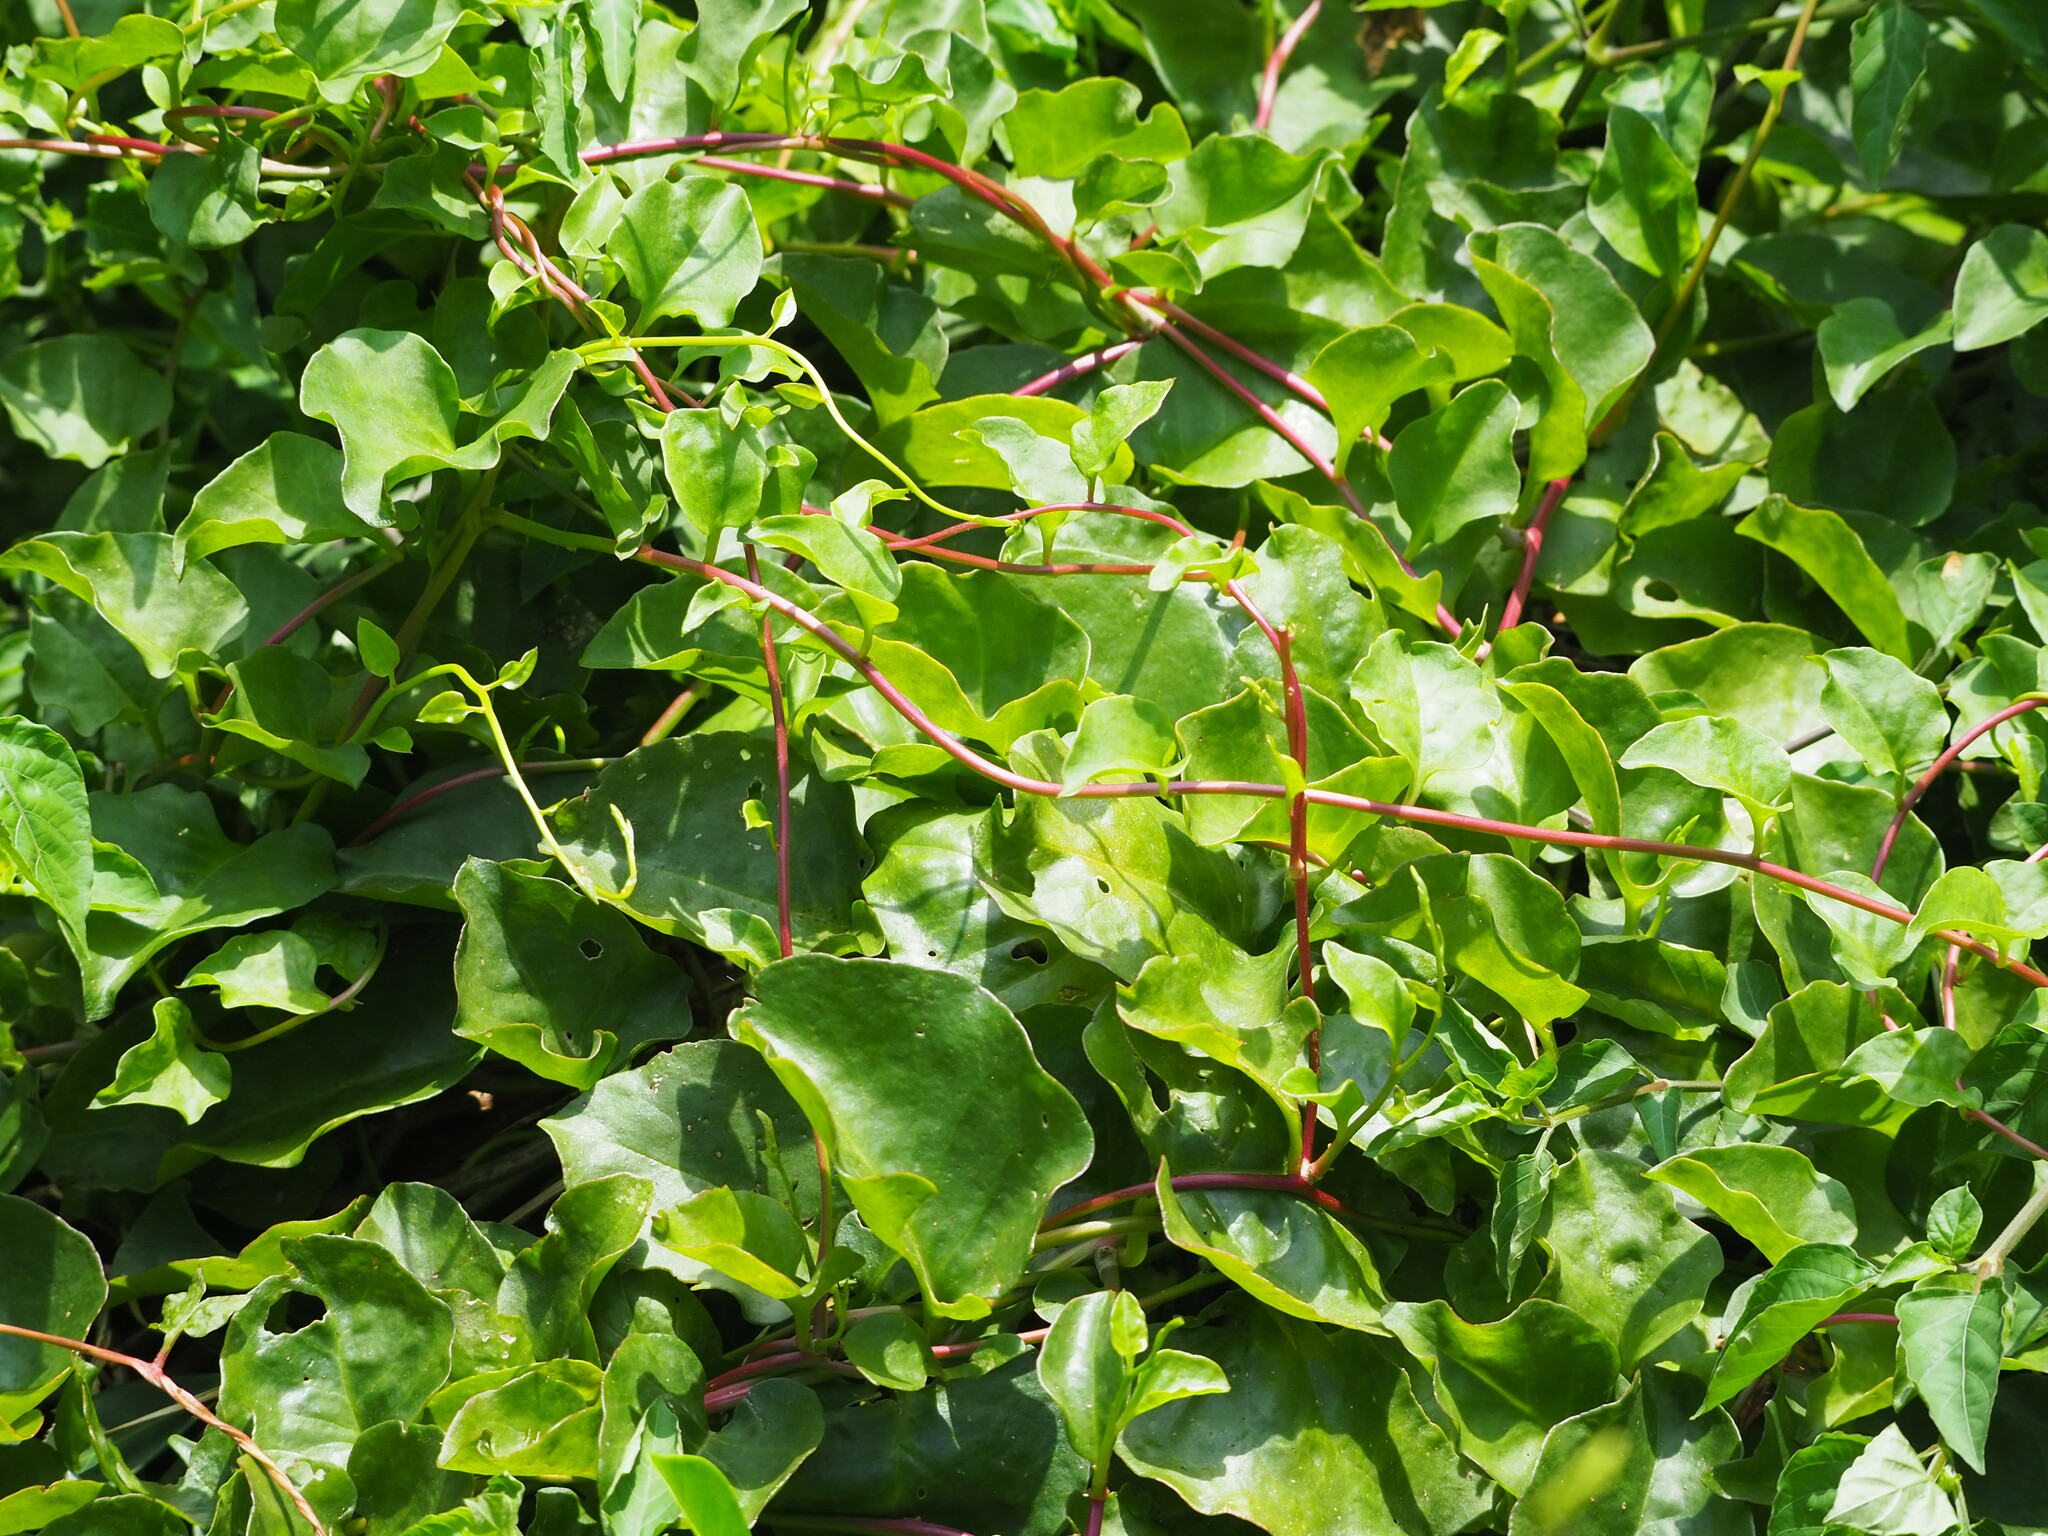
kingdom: Plantae
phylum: Tracheophyta
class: Magnoliopsida
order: Caryophyllales
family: Basellaceae
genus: Anredera
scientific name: Anredera cordifolia
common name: Heartleaf madeiravine
